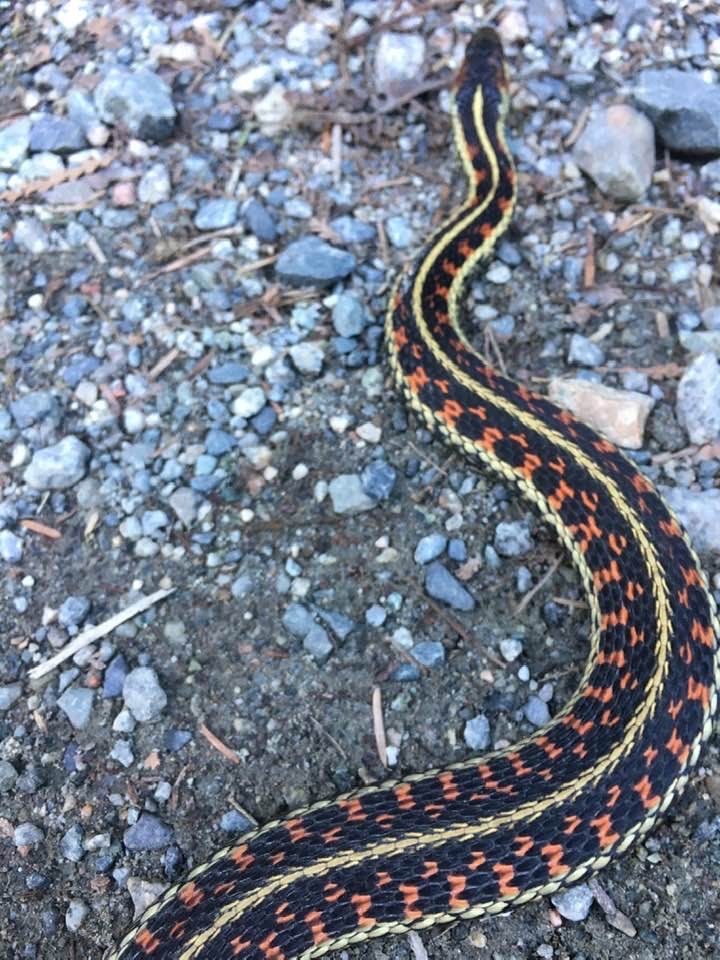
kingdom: Animalia
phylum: Chordata
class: Squamata
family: Colubridae
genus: Thamnophis
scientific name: Thamnophis sirtalis
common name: Common garter snake
